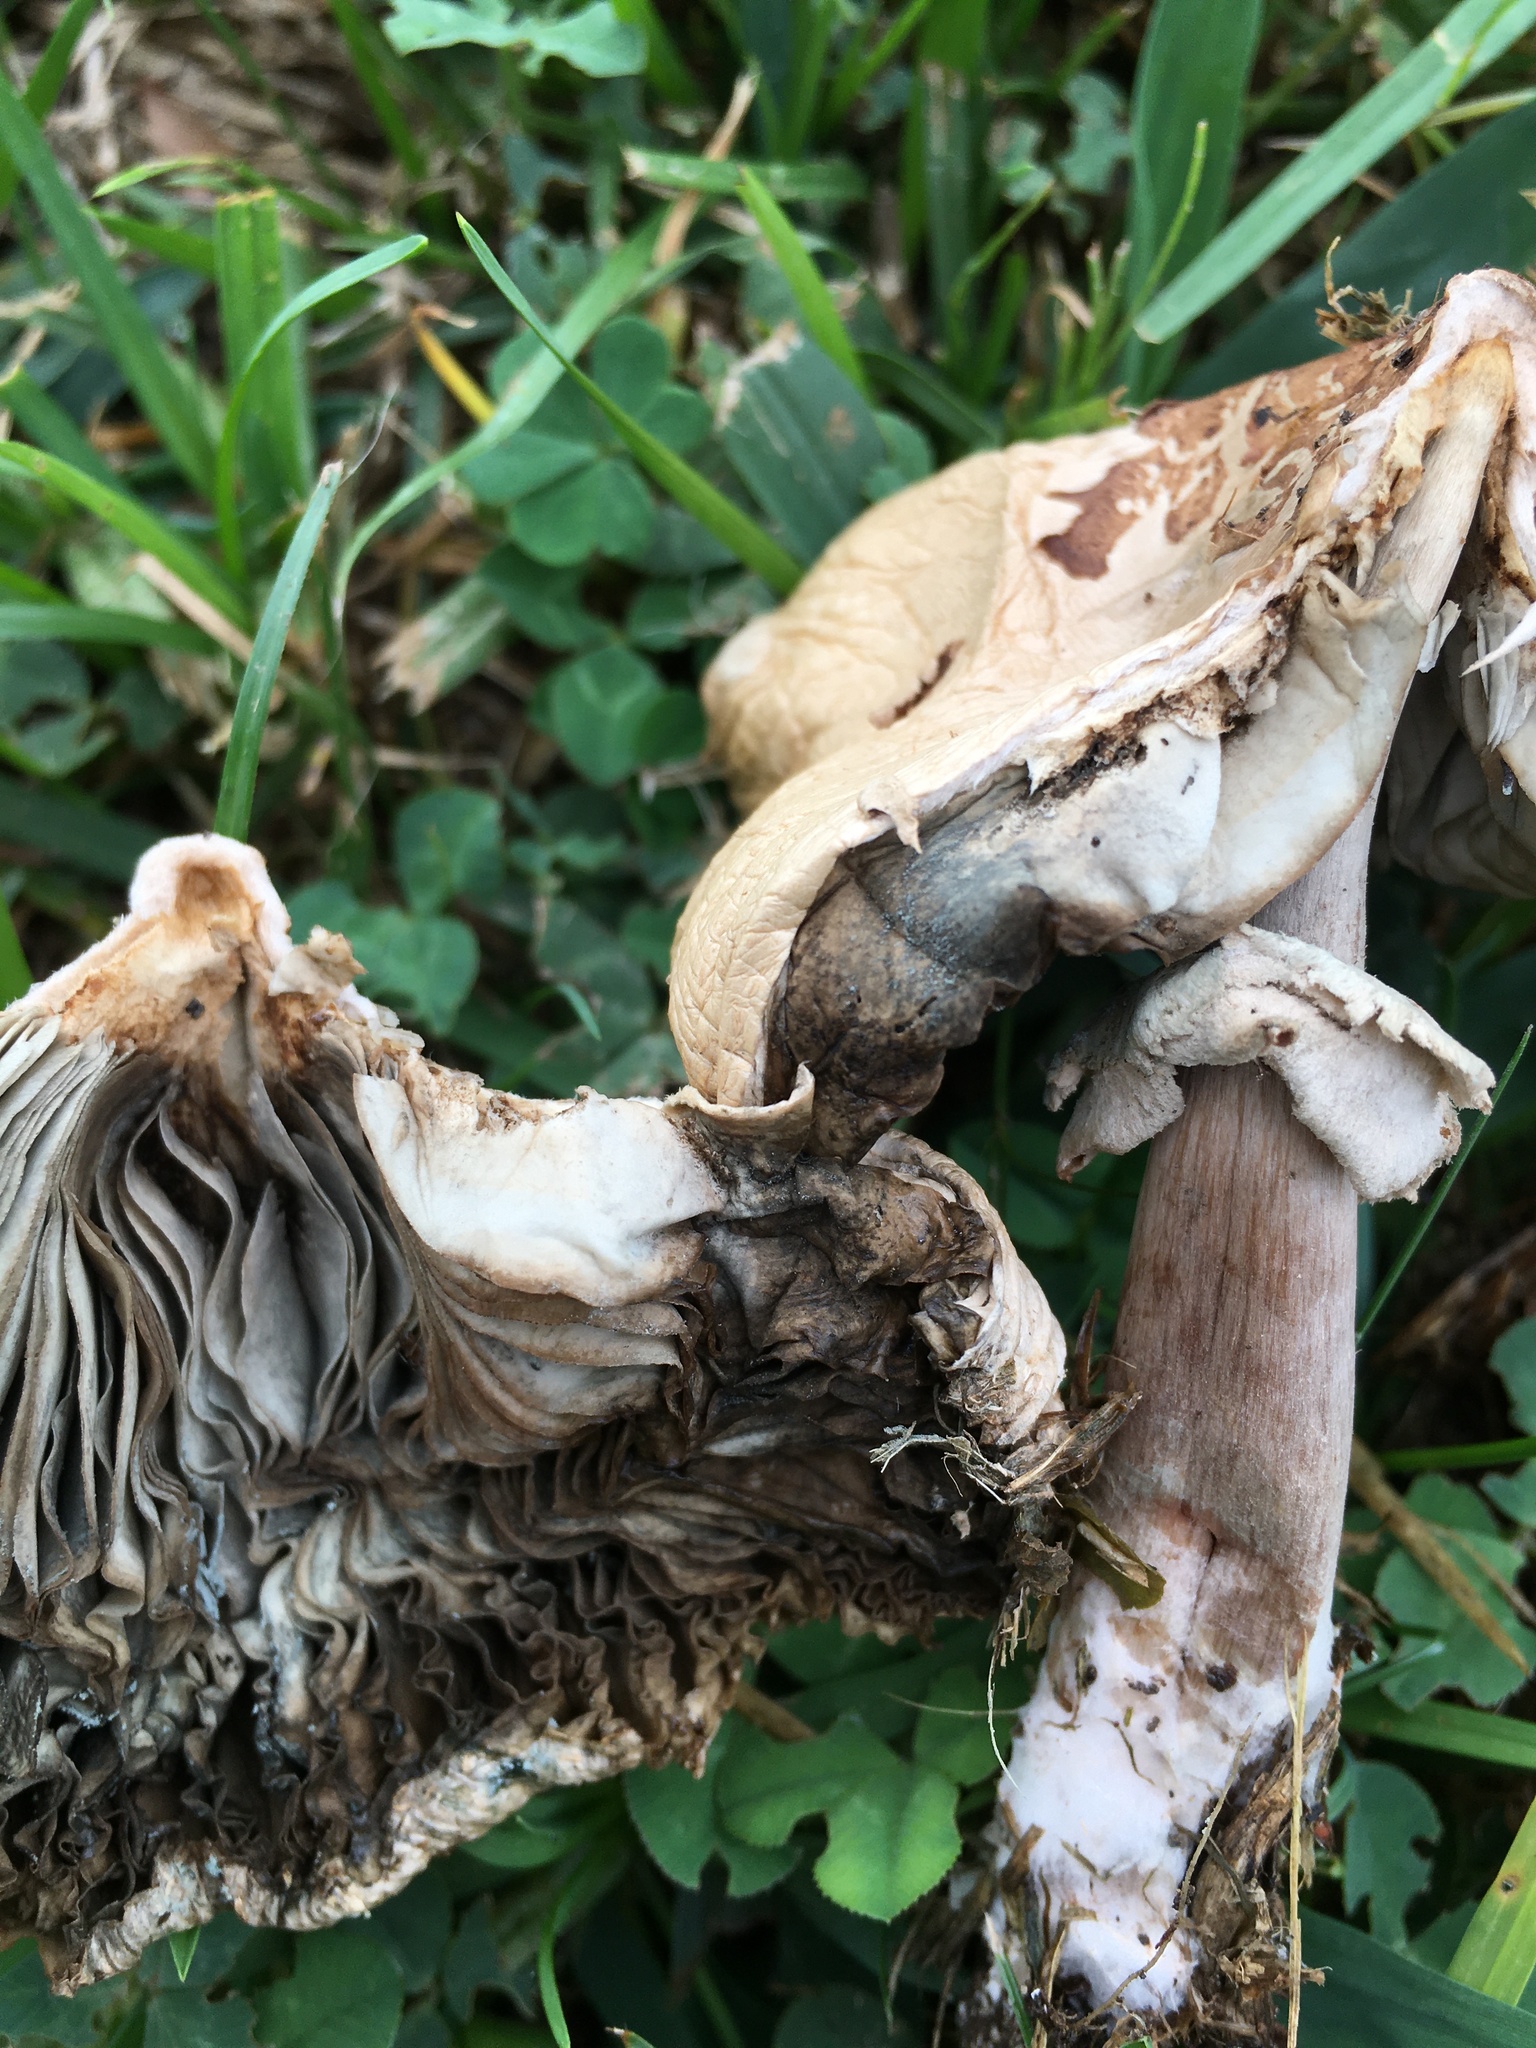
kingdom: Fungi
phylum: Basidiomycota
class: Agaricomycetes
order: Agaricales
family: Agaricaceae
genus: Chlorophyllum
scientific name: Chlorophyllum molybdites
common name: False parasol
